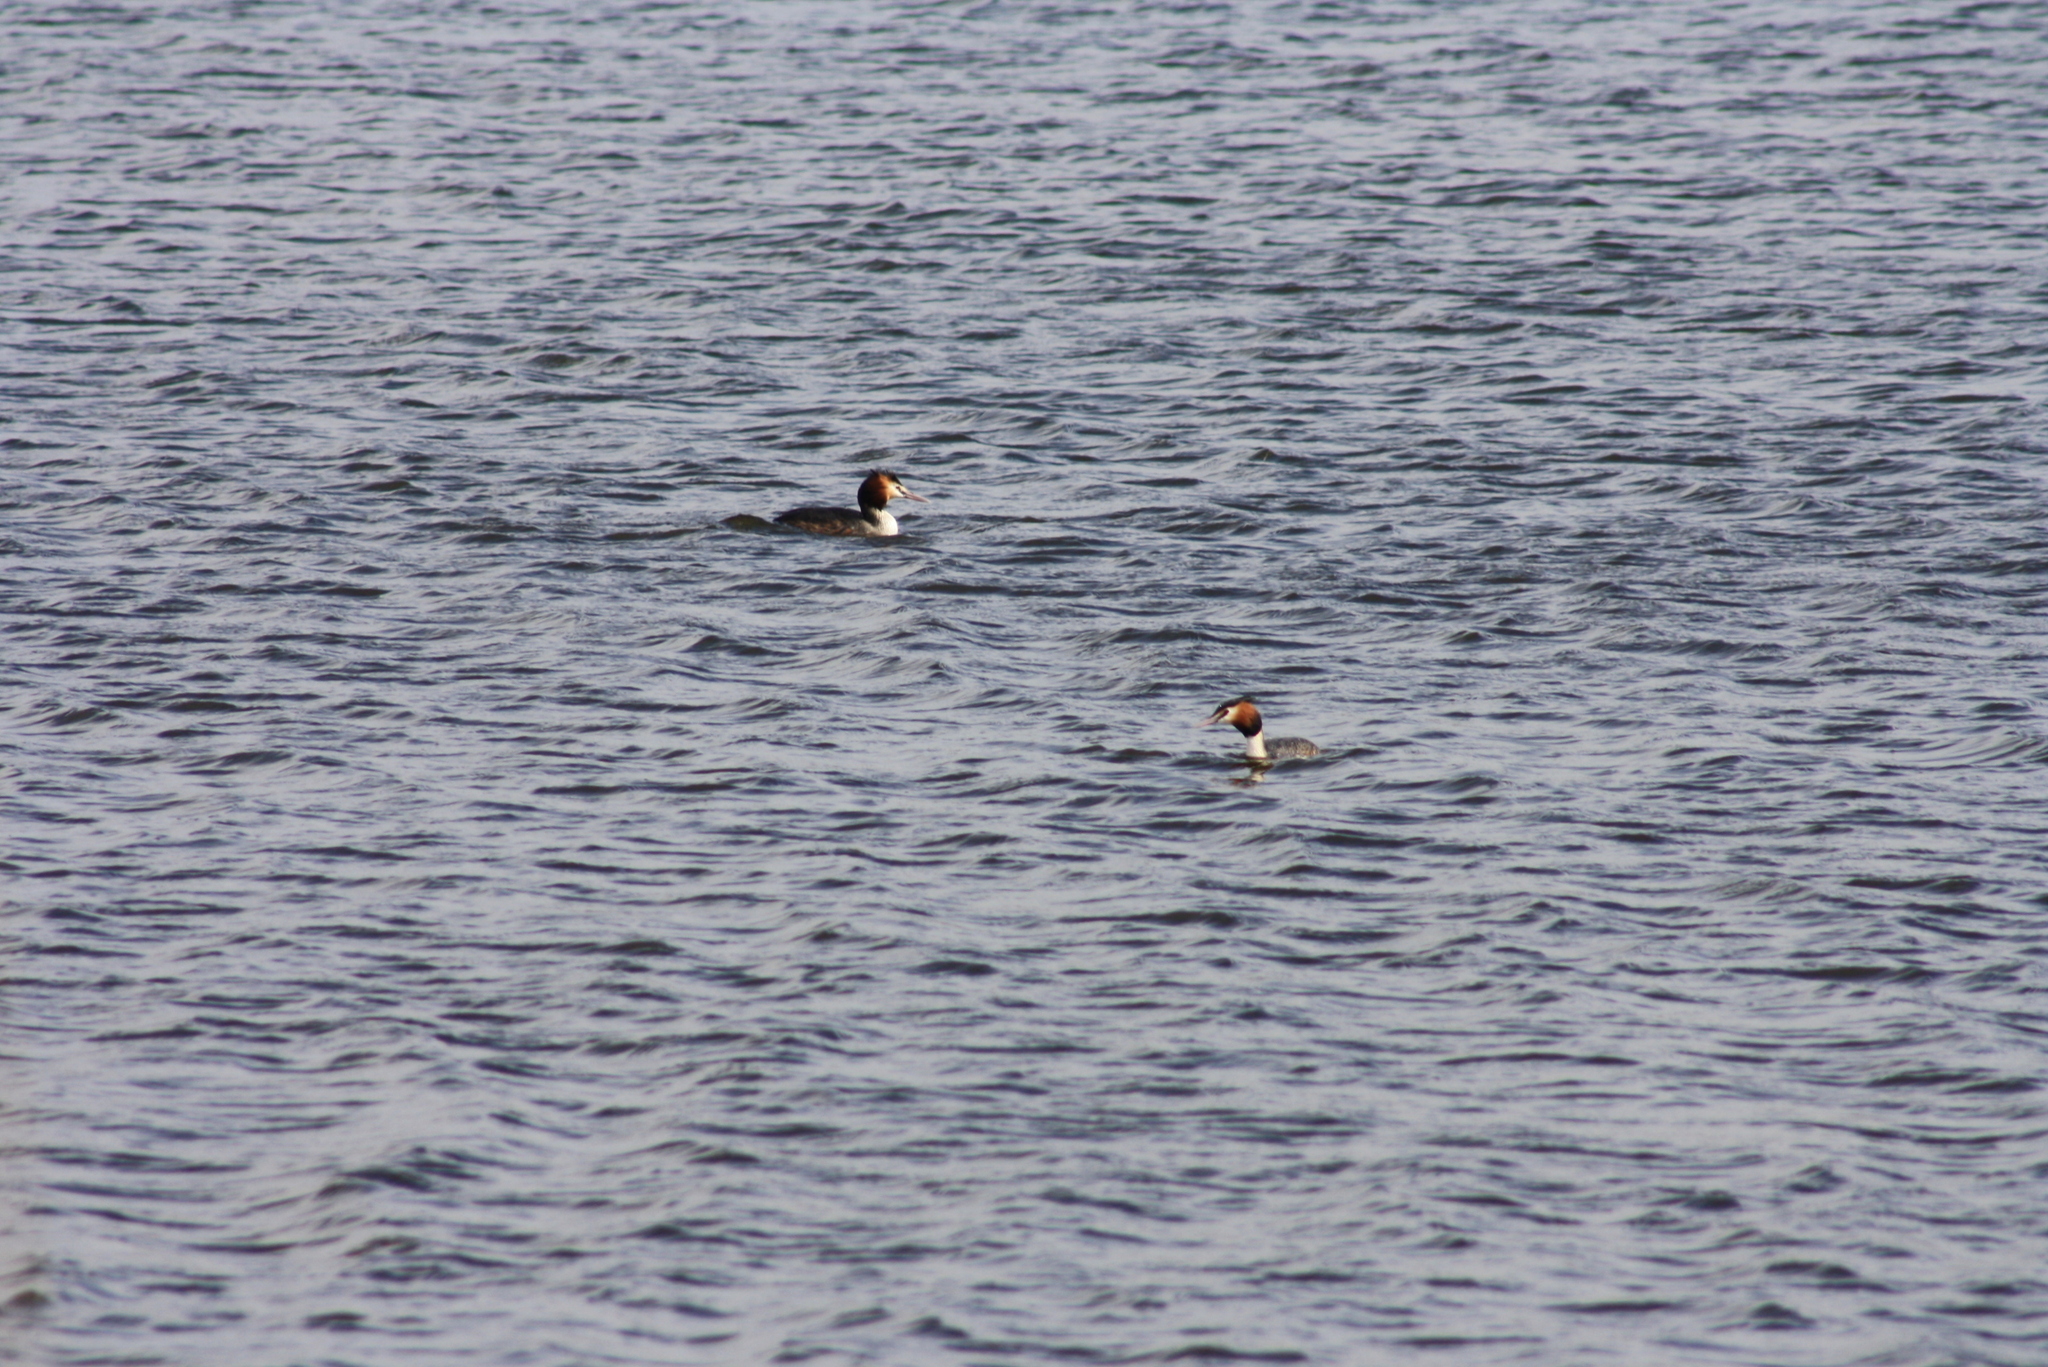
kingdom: Animalia
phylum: Chordata
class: Aves
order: Podicipediformes
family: Podicipedidae
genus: Podiceps
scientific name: Podiceps cristatus
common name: Great crested grebe
